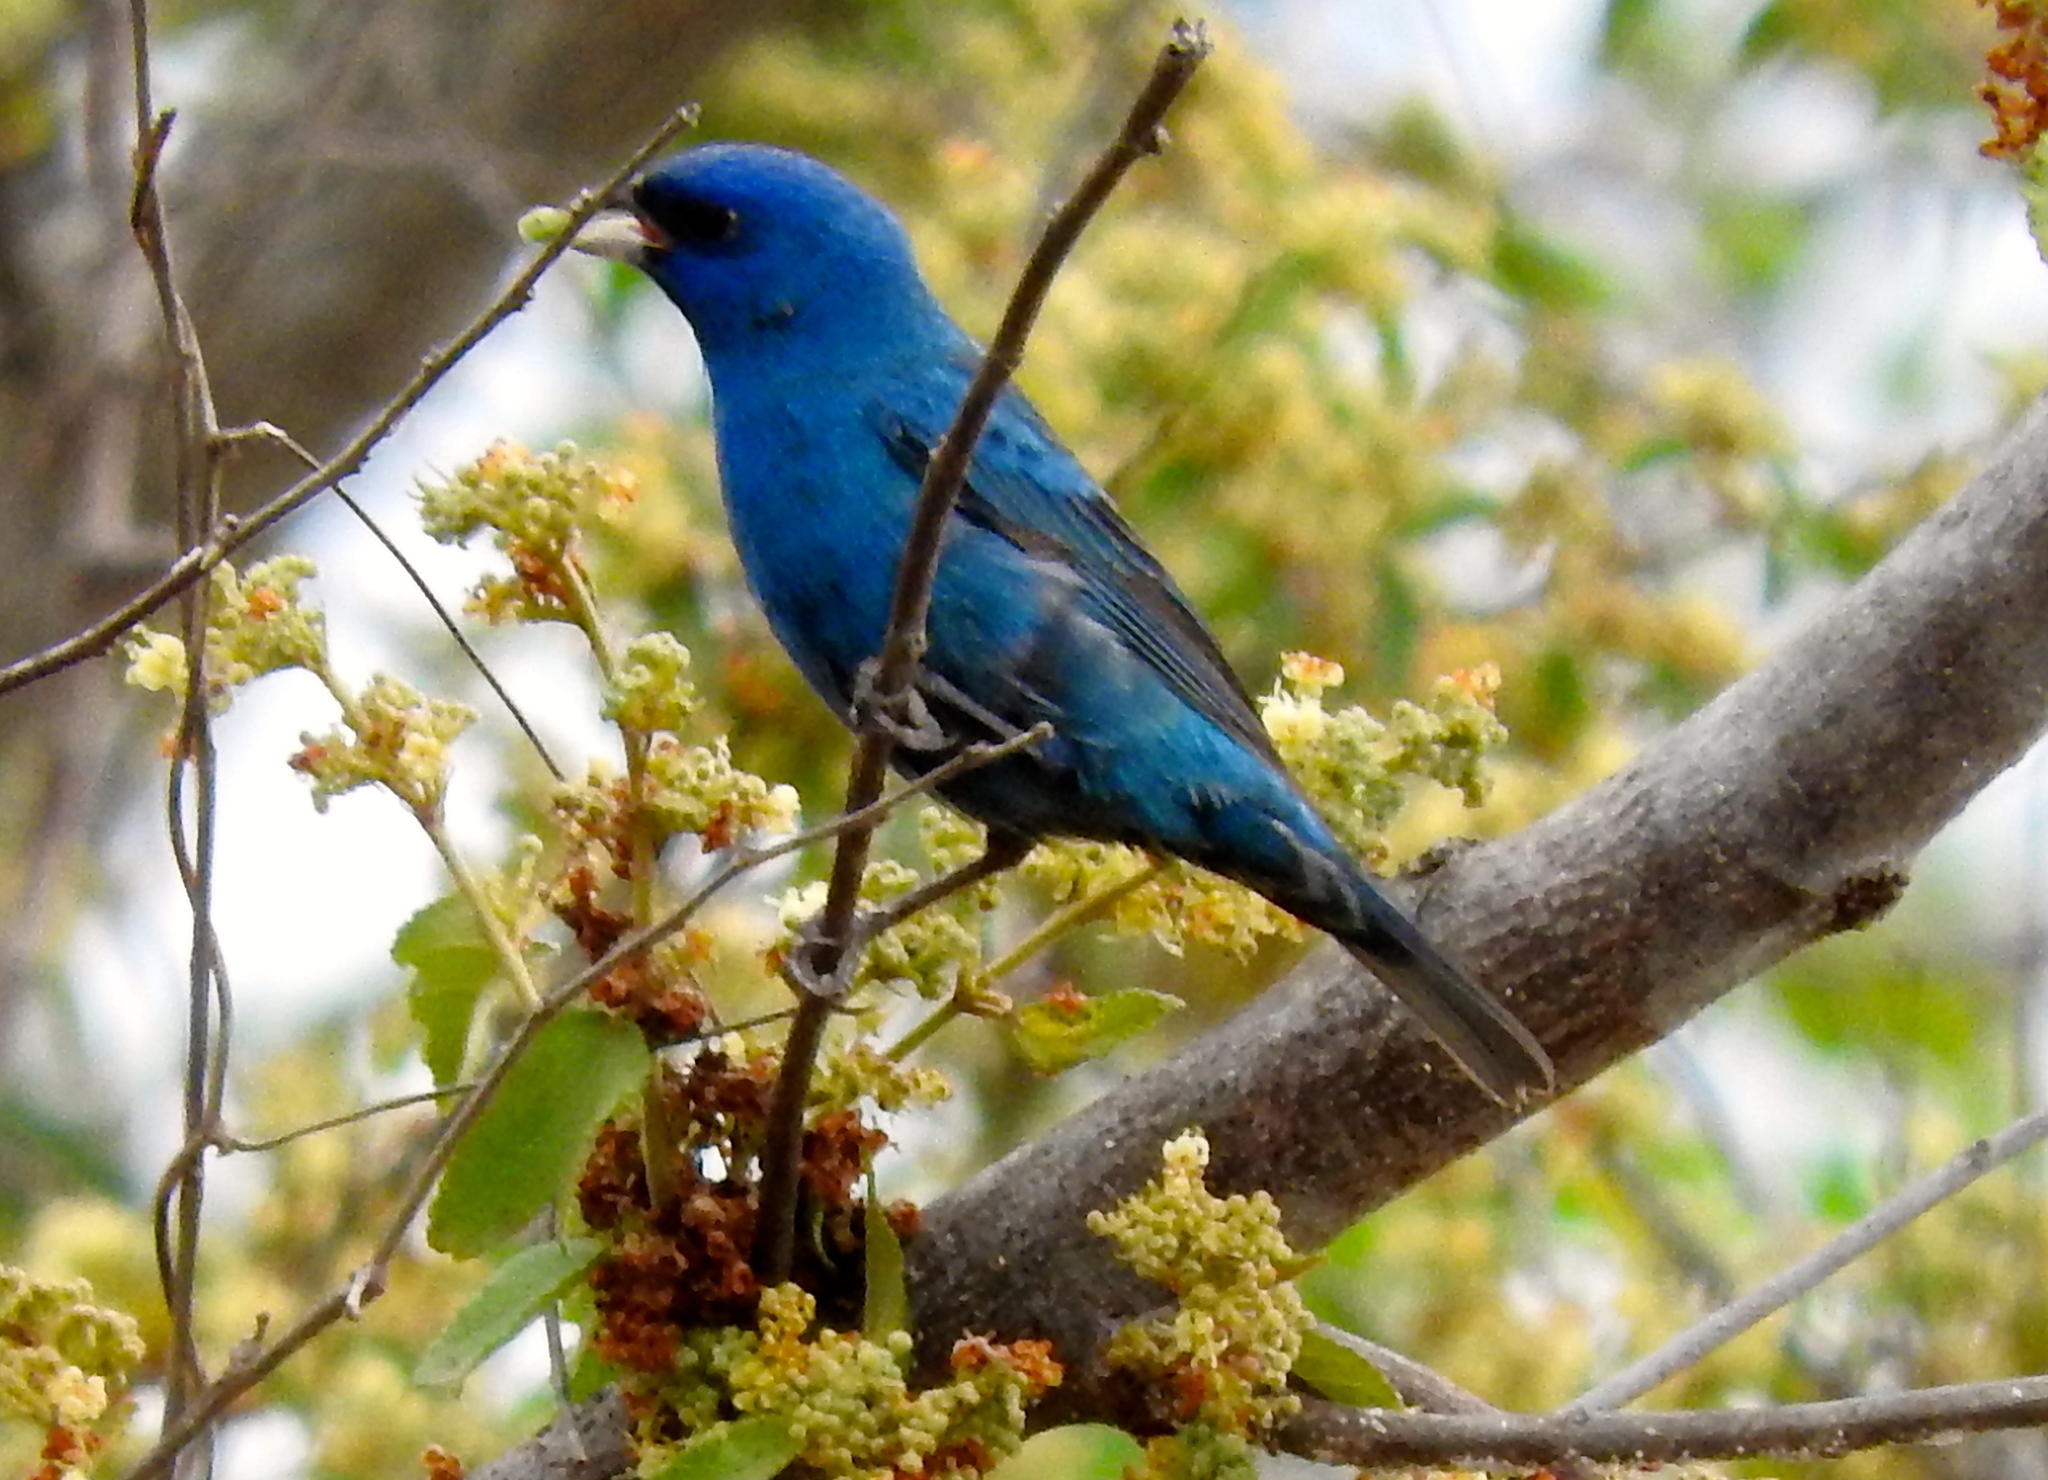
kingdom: Animalia
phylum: Chordata
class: Aves
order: Passeriformes
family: Cardinalidae
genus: Passerina
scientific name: Passerina cyanea
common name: Indigo bunting
